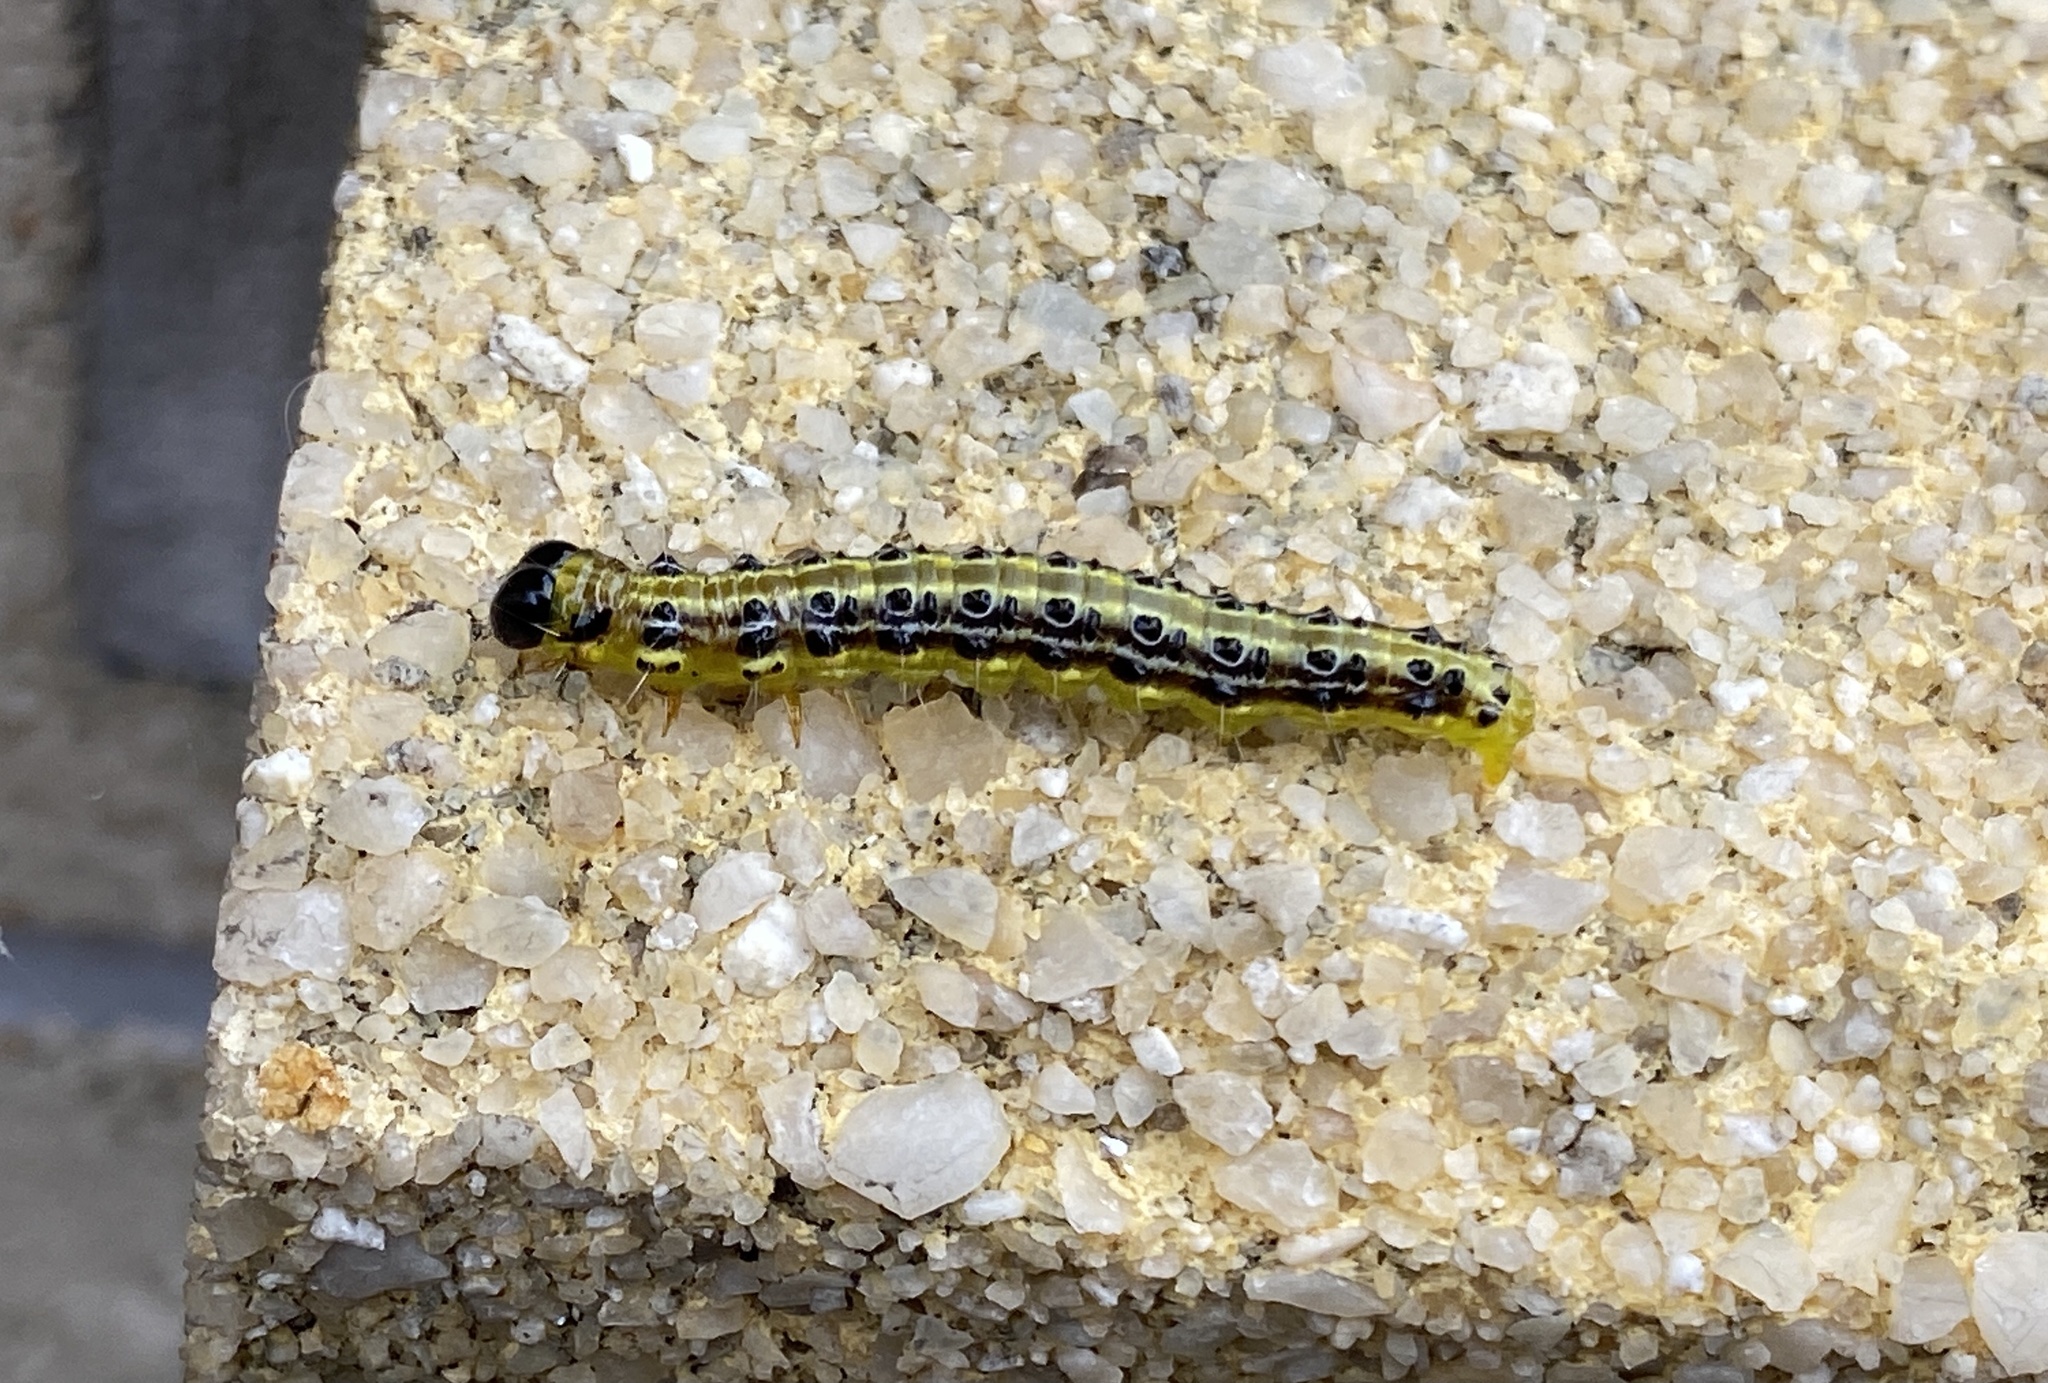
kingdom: Animalia
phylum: Arthropoda
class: Insecta
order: Lepidoptera
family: Crambidae
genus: Cydalima
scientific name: Cydalima perspectalis
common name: Box tree moth
